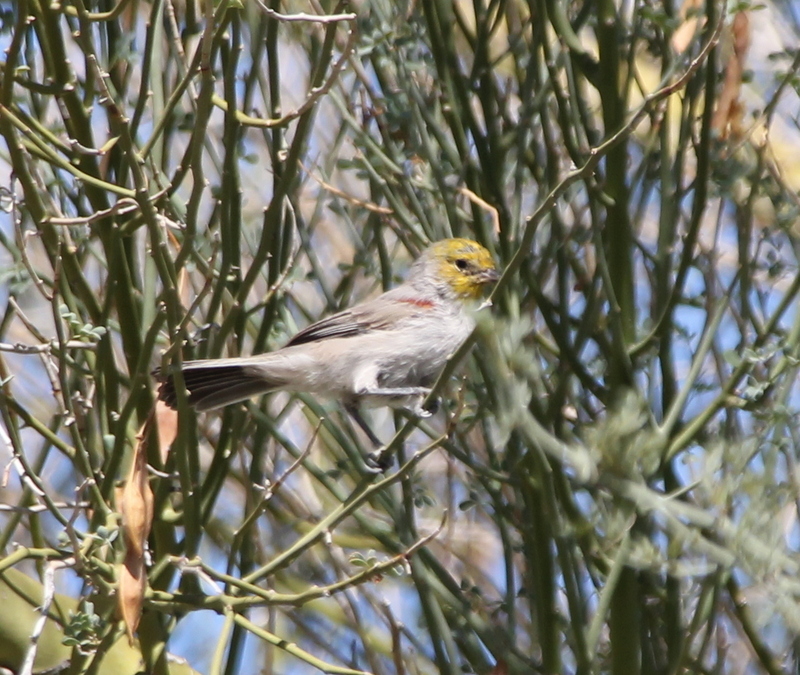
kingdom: Animalia
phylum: Chordata
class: Aves
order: Passeriformes
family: Remizidae
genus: Auriparus
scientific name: Auriparus flaviceps
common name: Verdin
